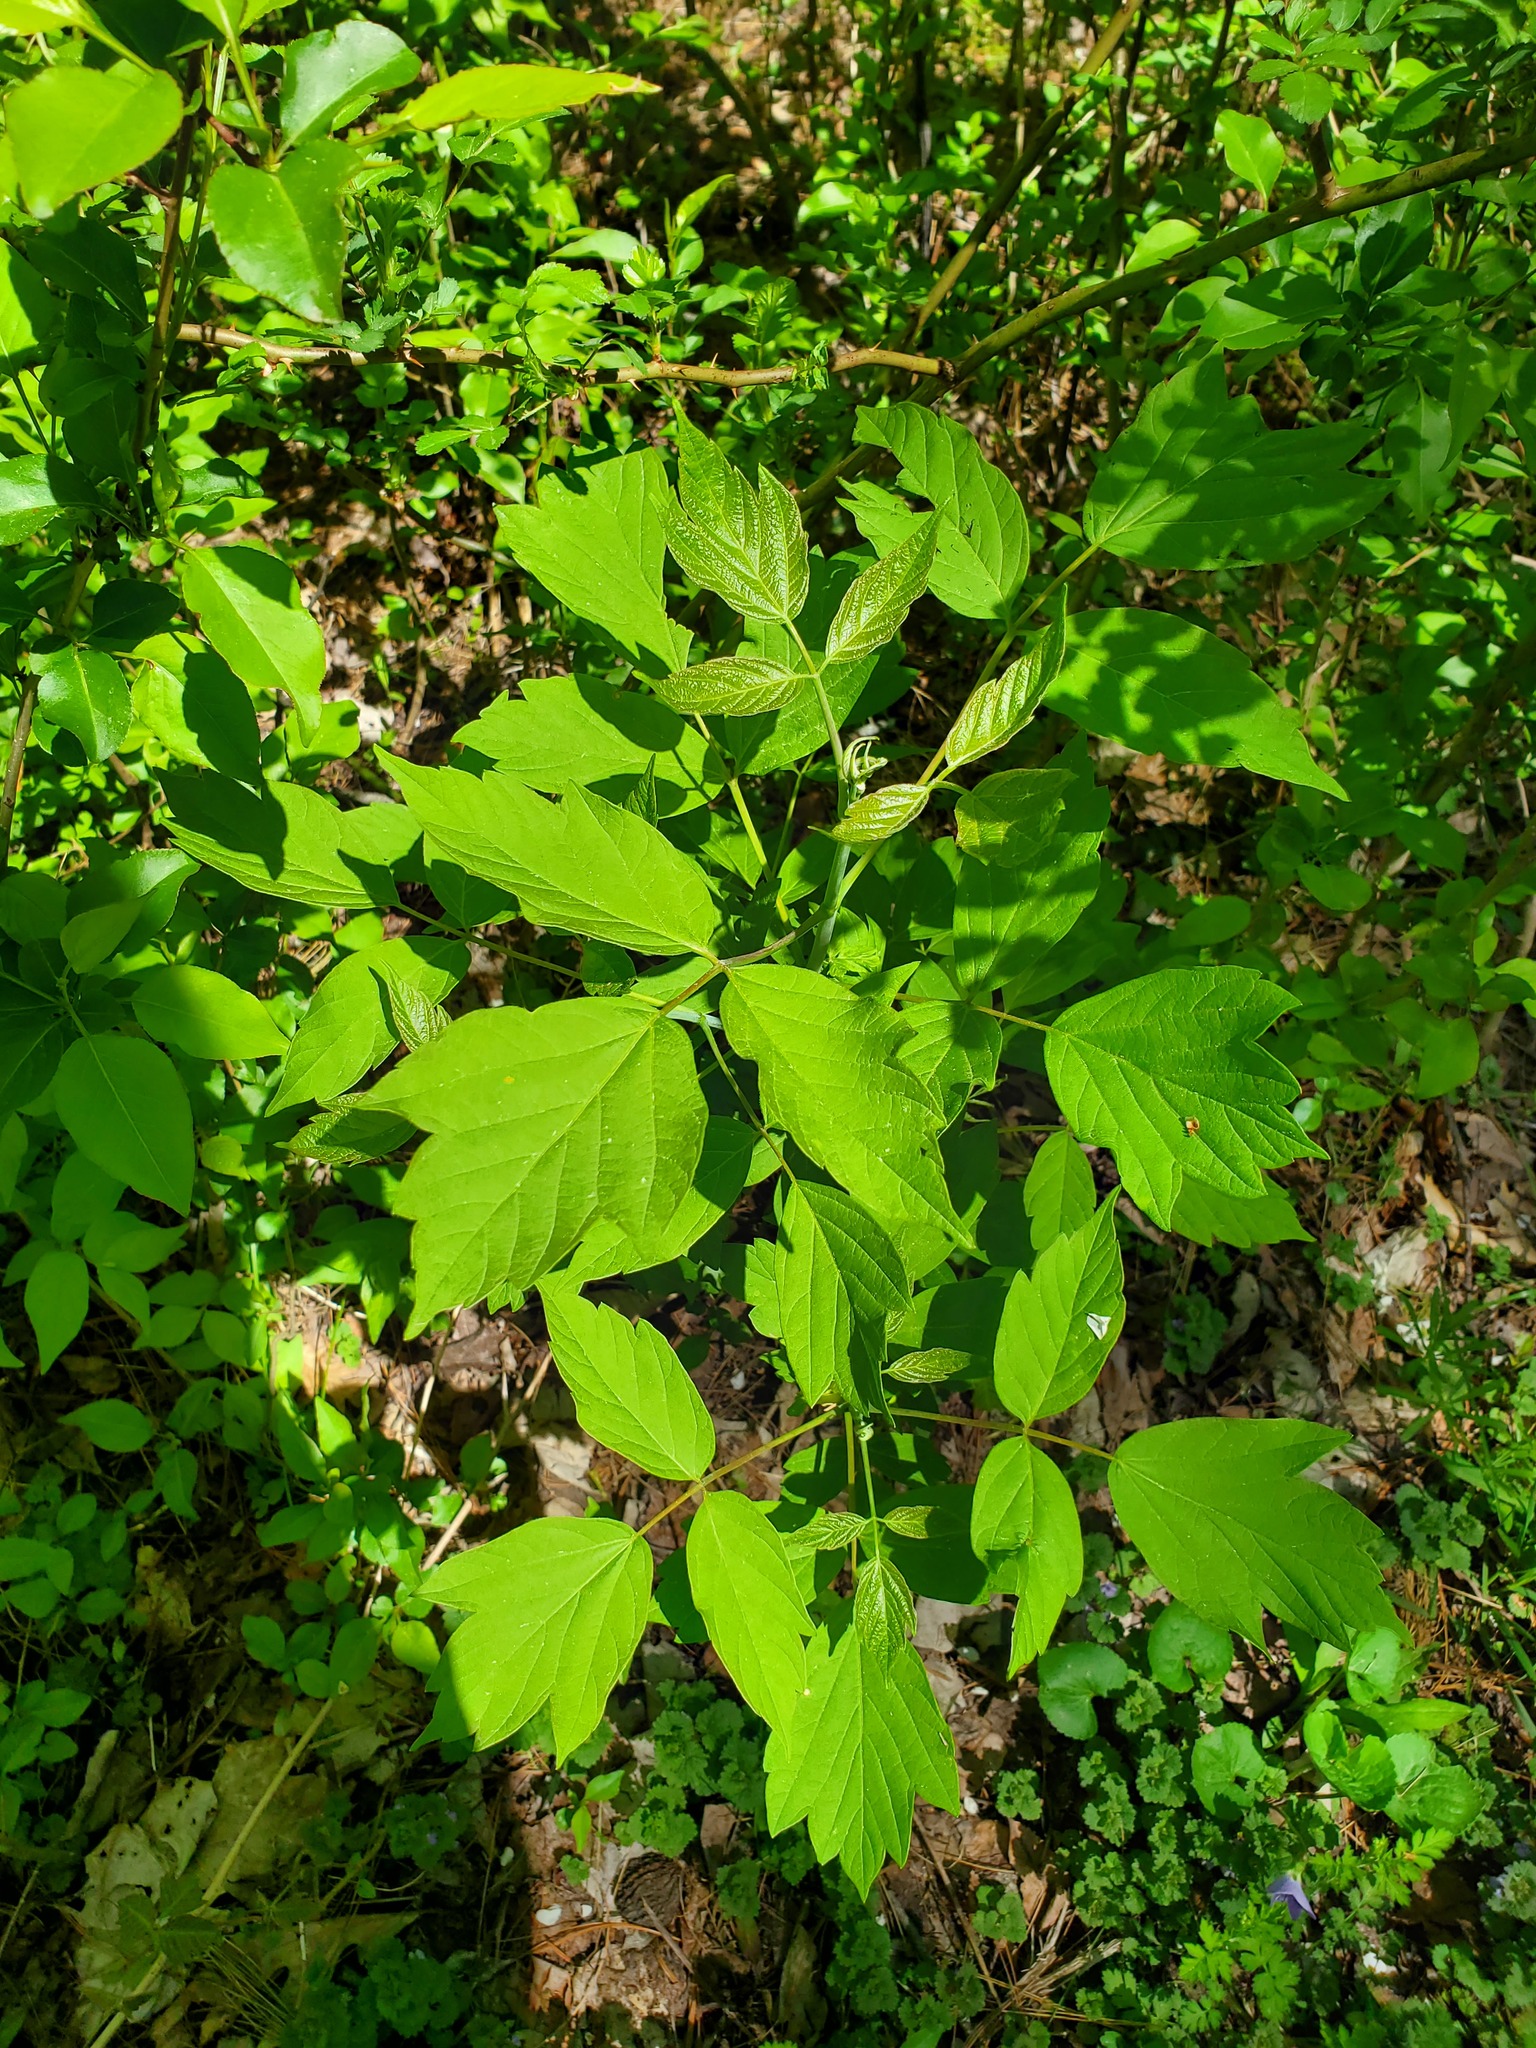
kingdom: Plantae
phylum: Tracheophyta
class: Magnoliopsida
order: Sapindales
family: Sapindaceae
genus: Acer
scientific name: Acer negundo
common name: Ashleaf maple
